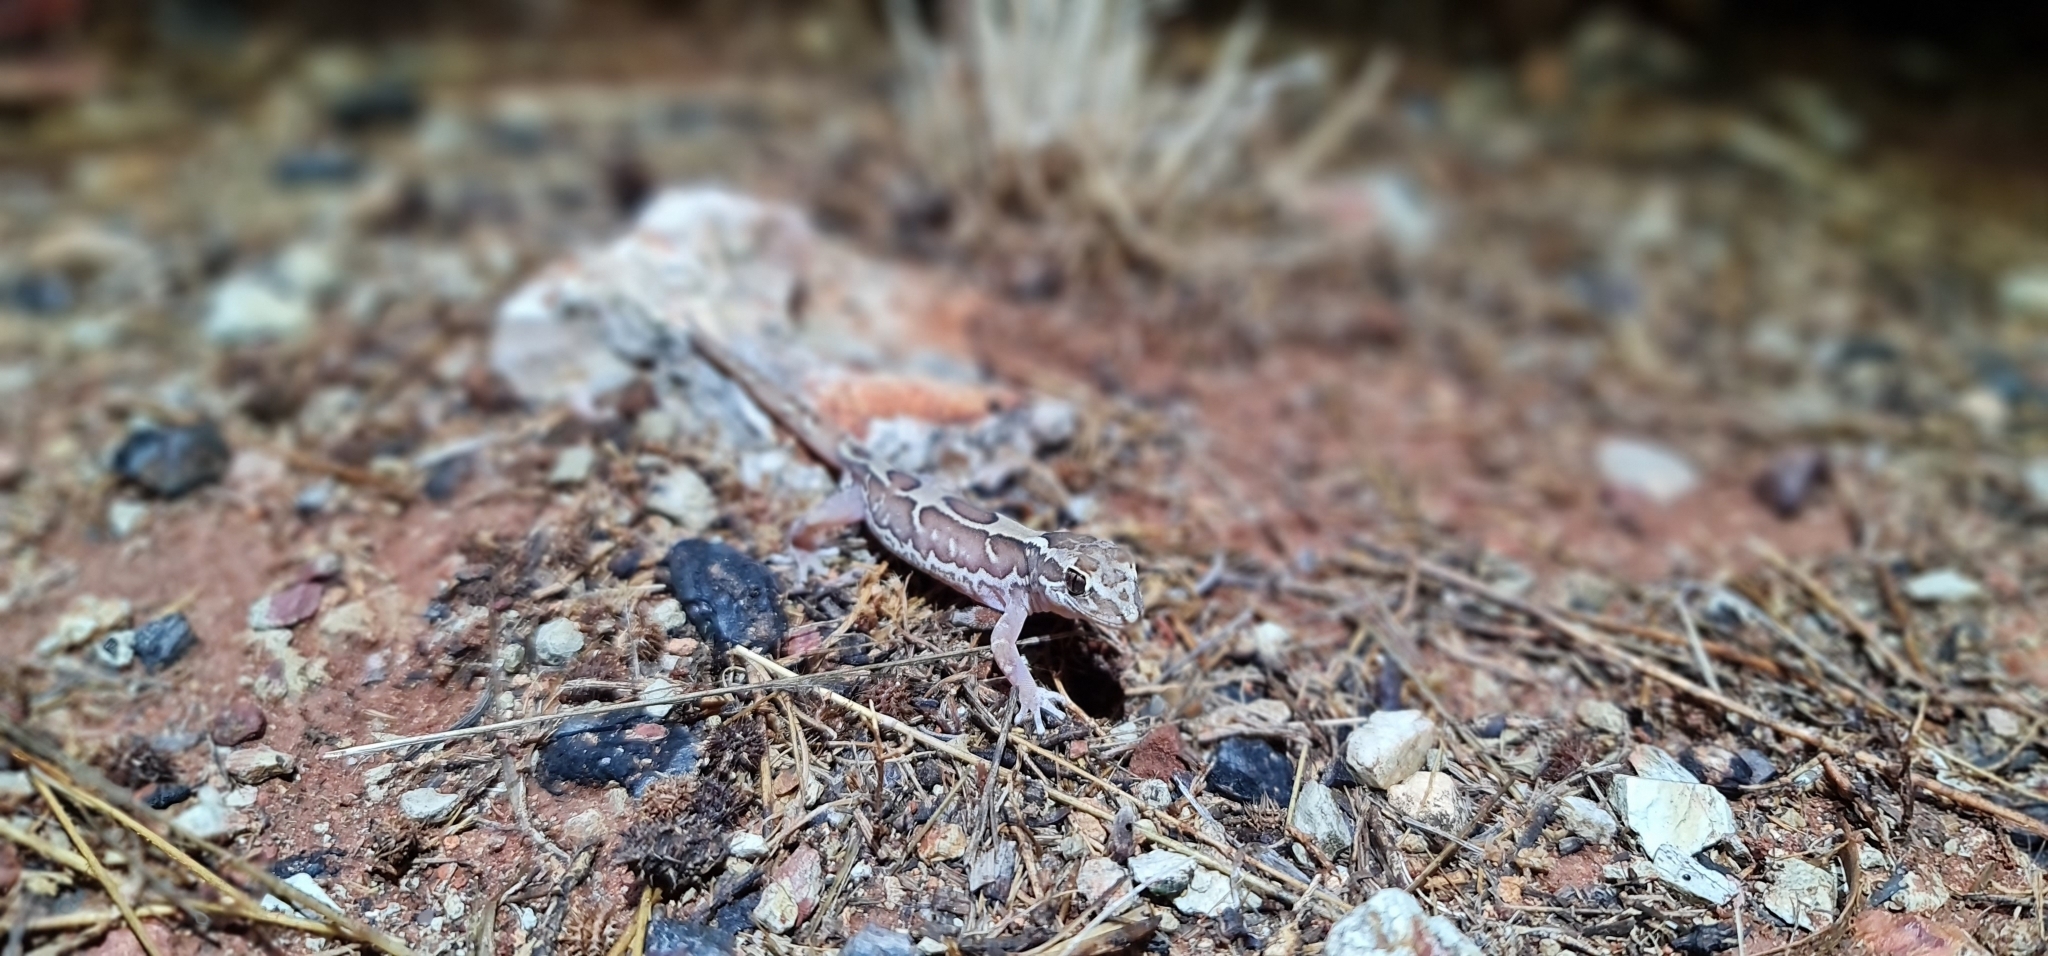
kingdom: Animalia
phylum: Chordata
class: Squamata
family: Diplodactylidae
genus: Lucasium
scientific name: Lucasium steindachneri
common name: Box-patterned gecko
